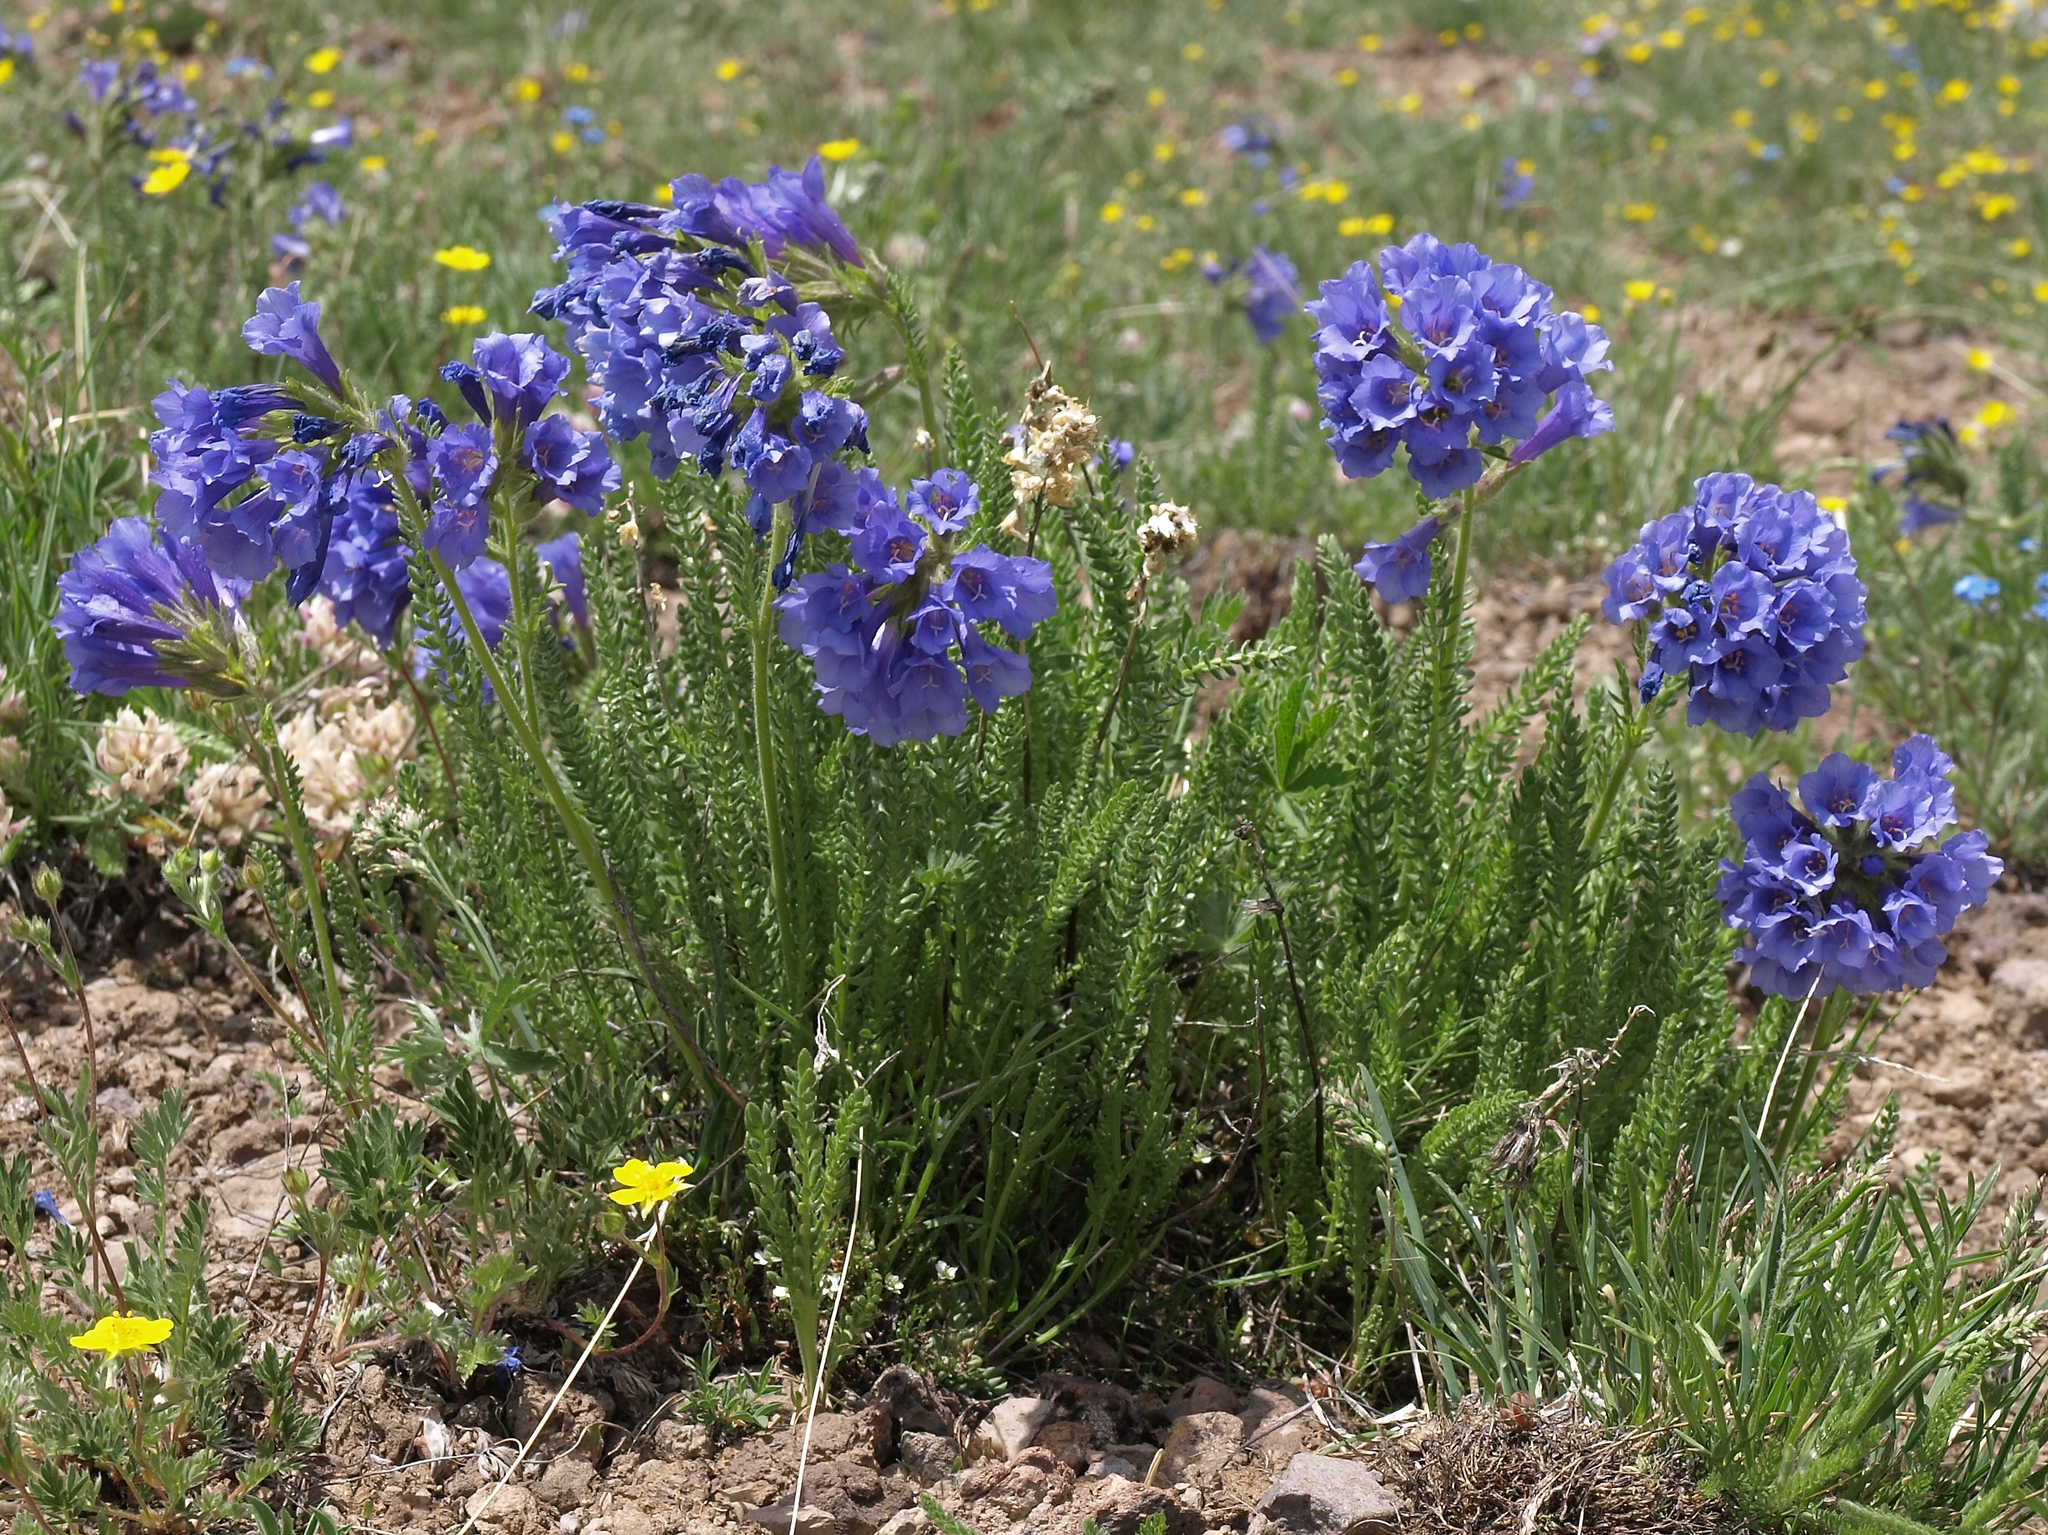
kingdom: Plantae
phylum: Tracheophyta
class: Magnoliopsida
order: Ericales
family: Polemoniaceae
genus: Polemonium
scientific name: Polemonium viscosum
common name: Skunk jacob's-ladder
